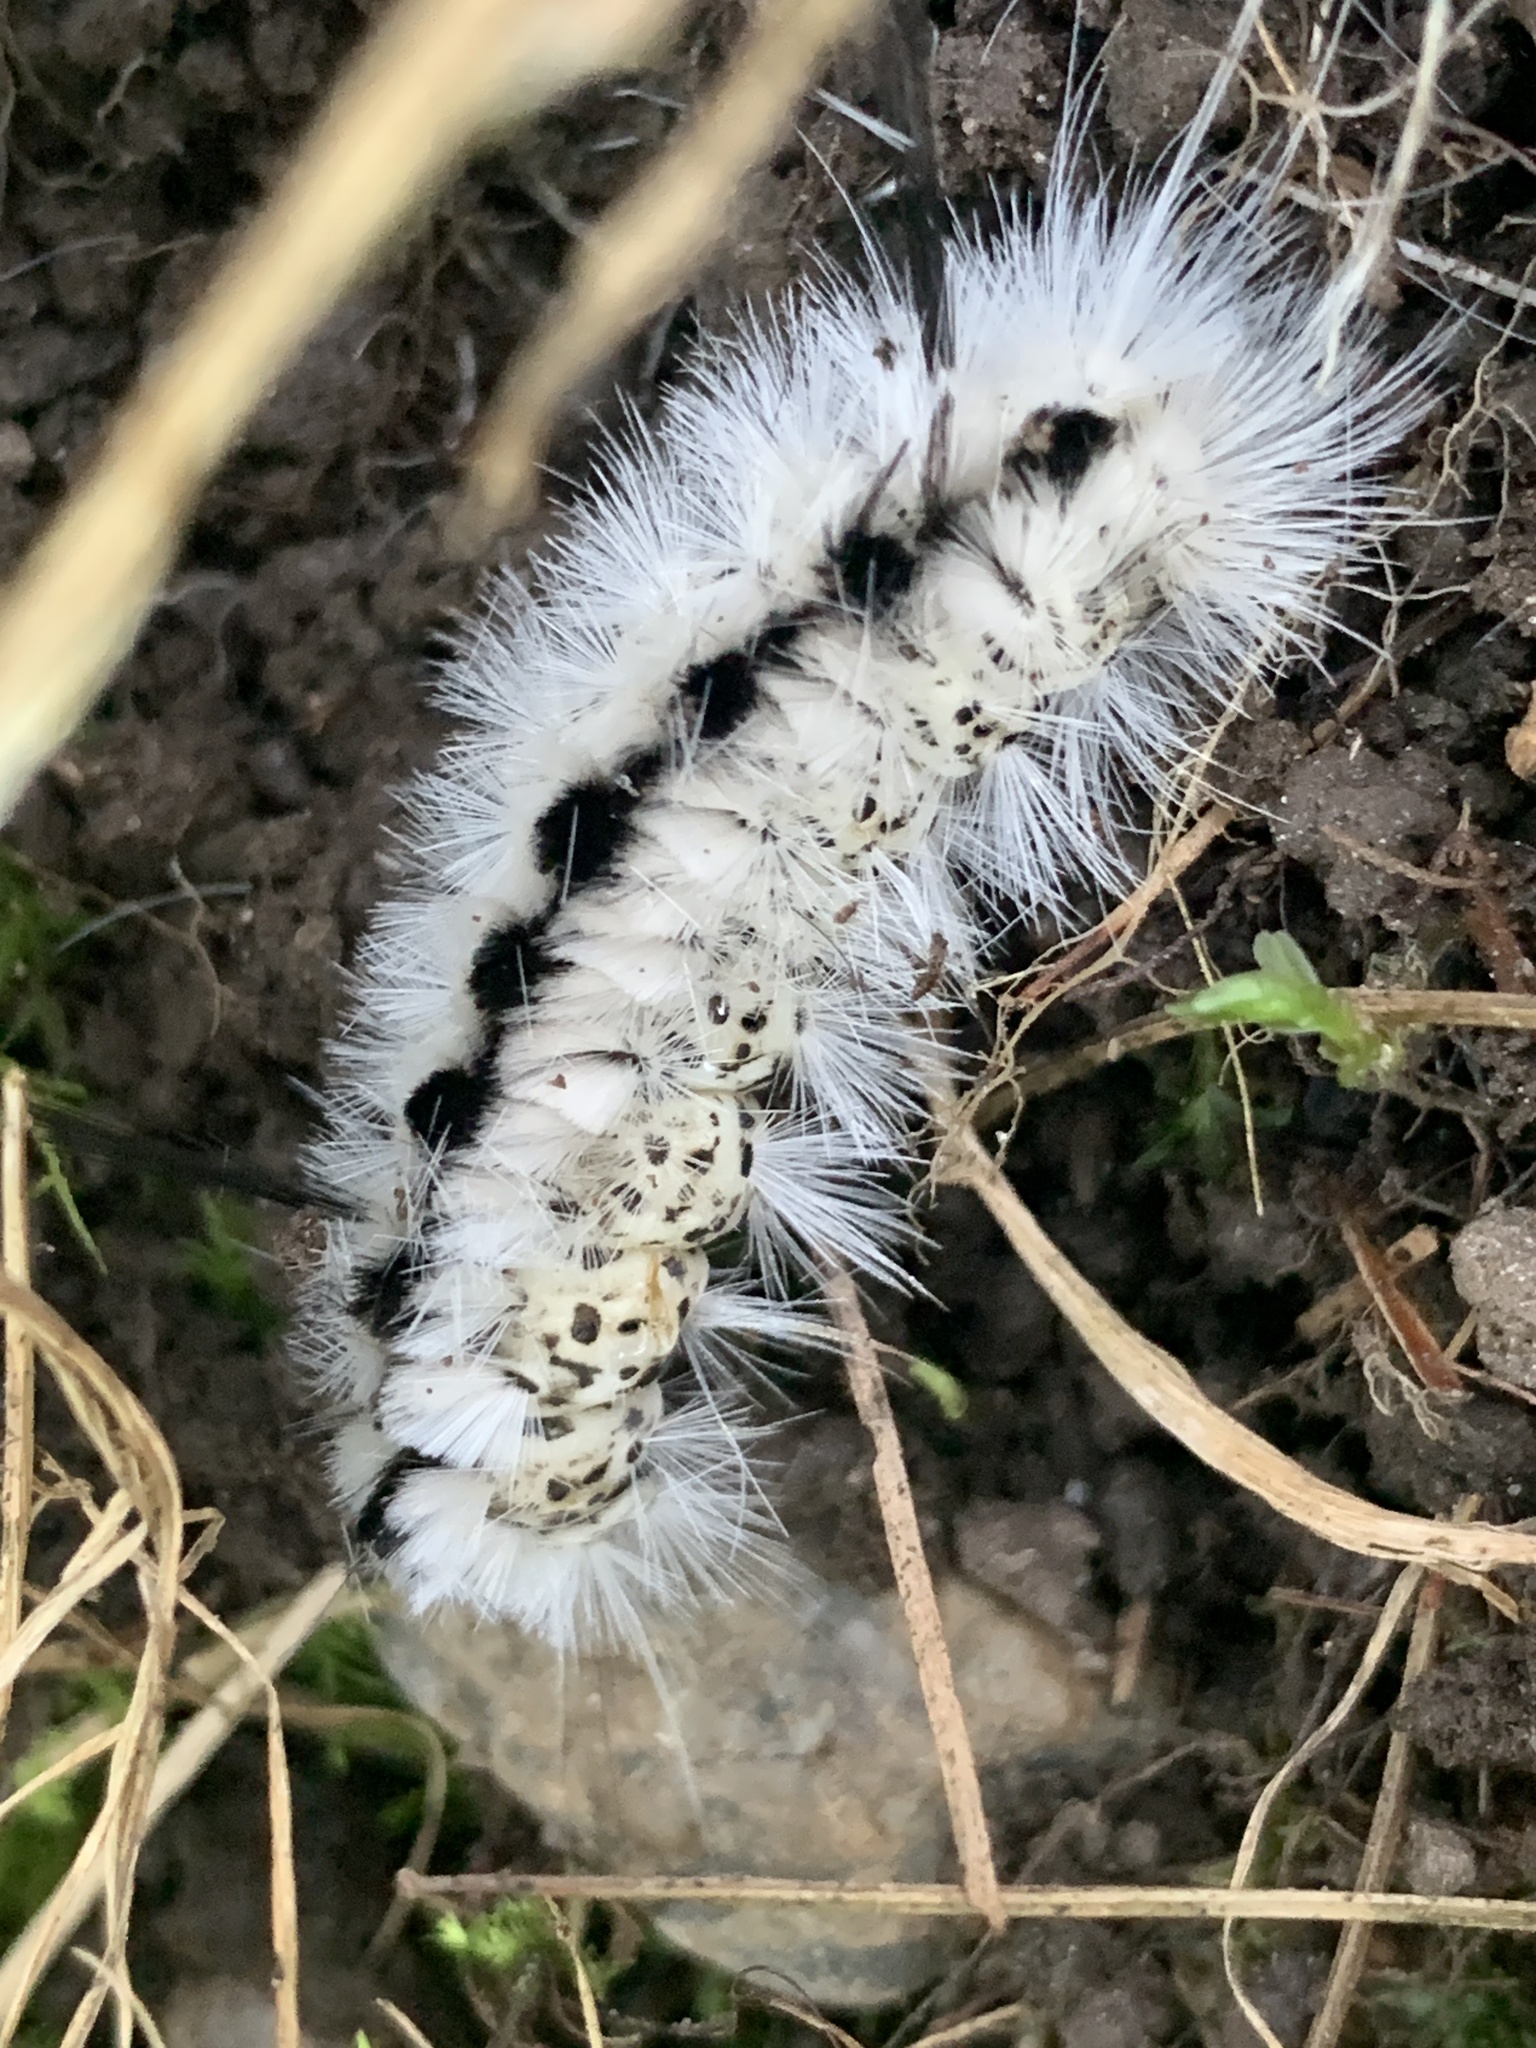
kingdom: Animalia
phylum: Arthropoda
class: Insecta
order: Lepidoptera
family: Erebidae
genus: Lophocampa
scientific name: Lophocampa caryae
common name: Hickory tussock moth
